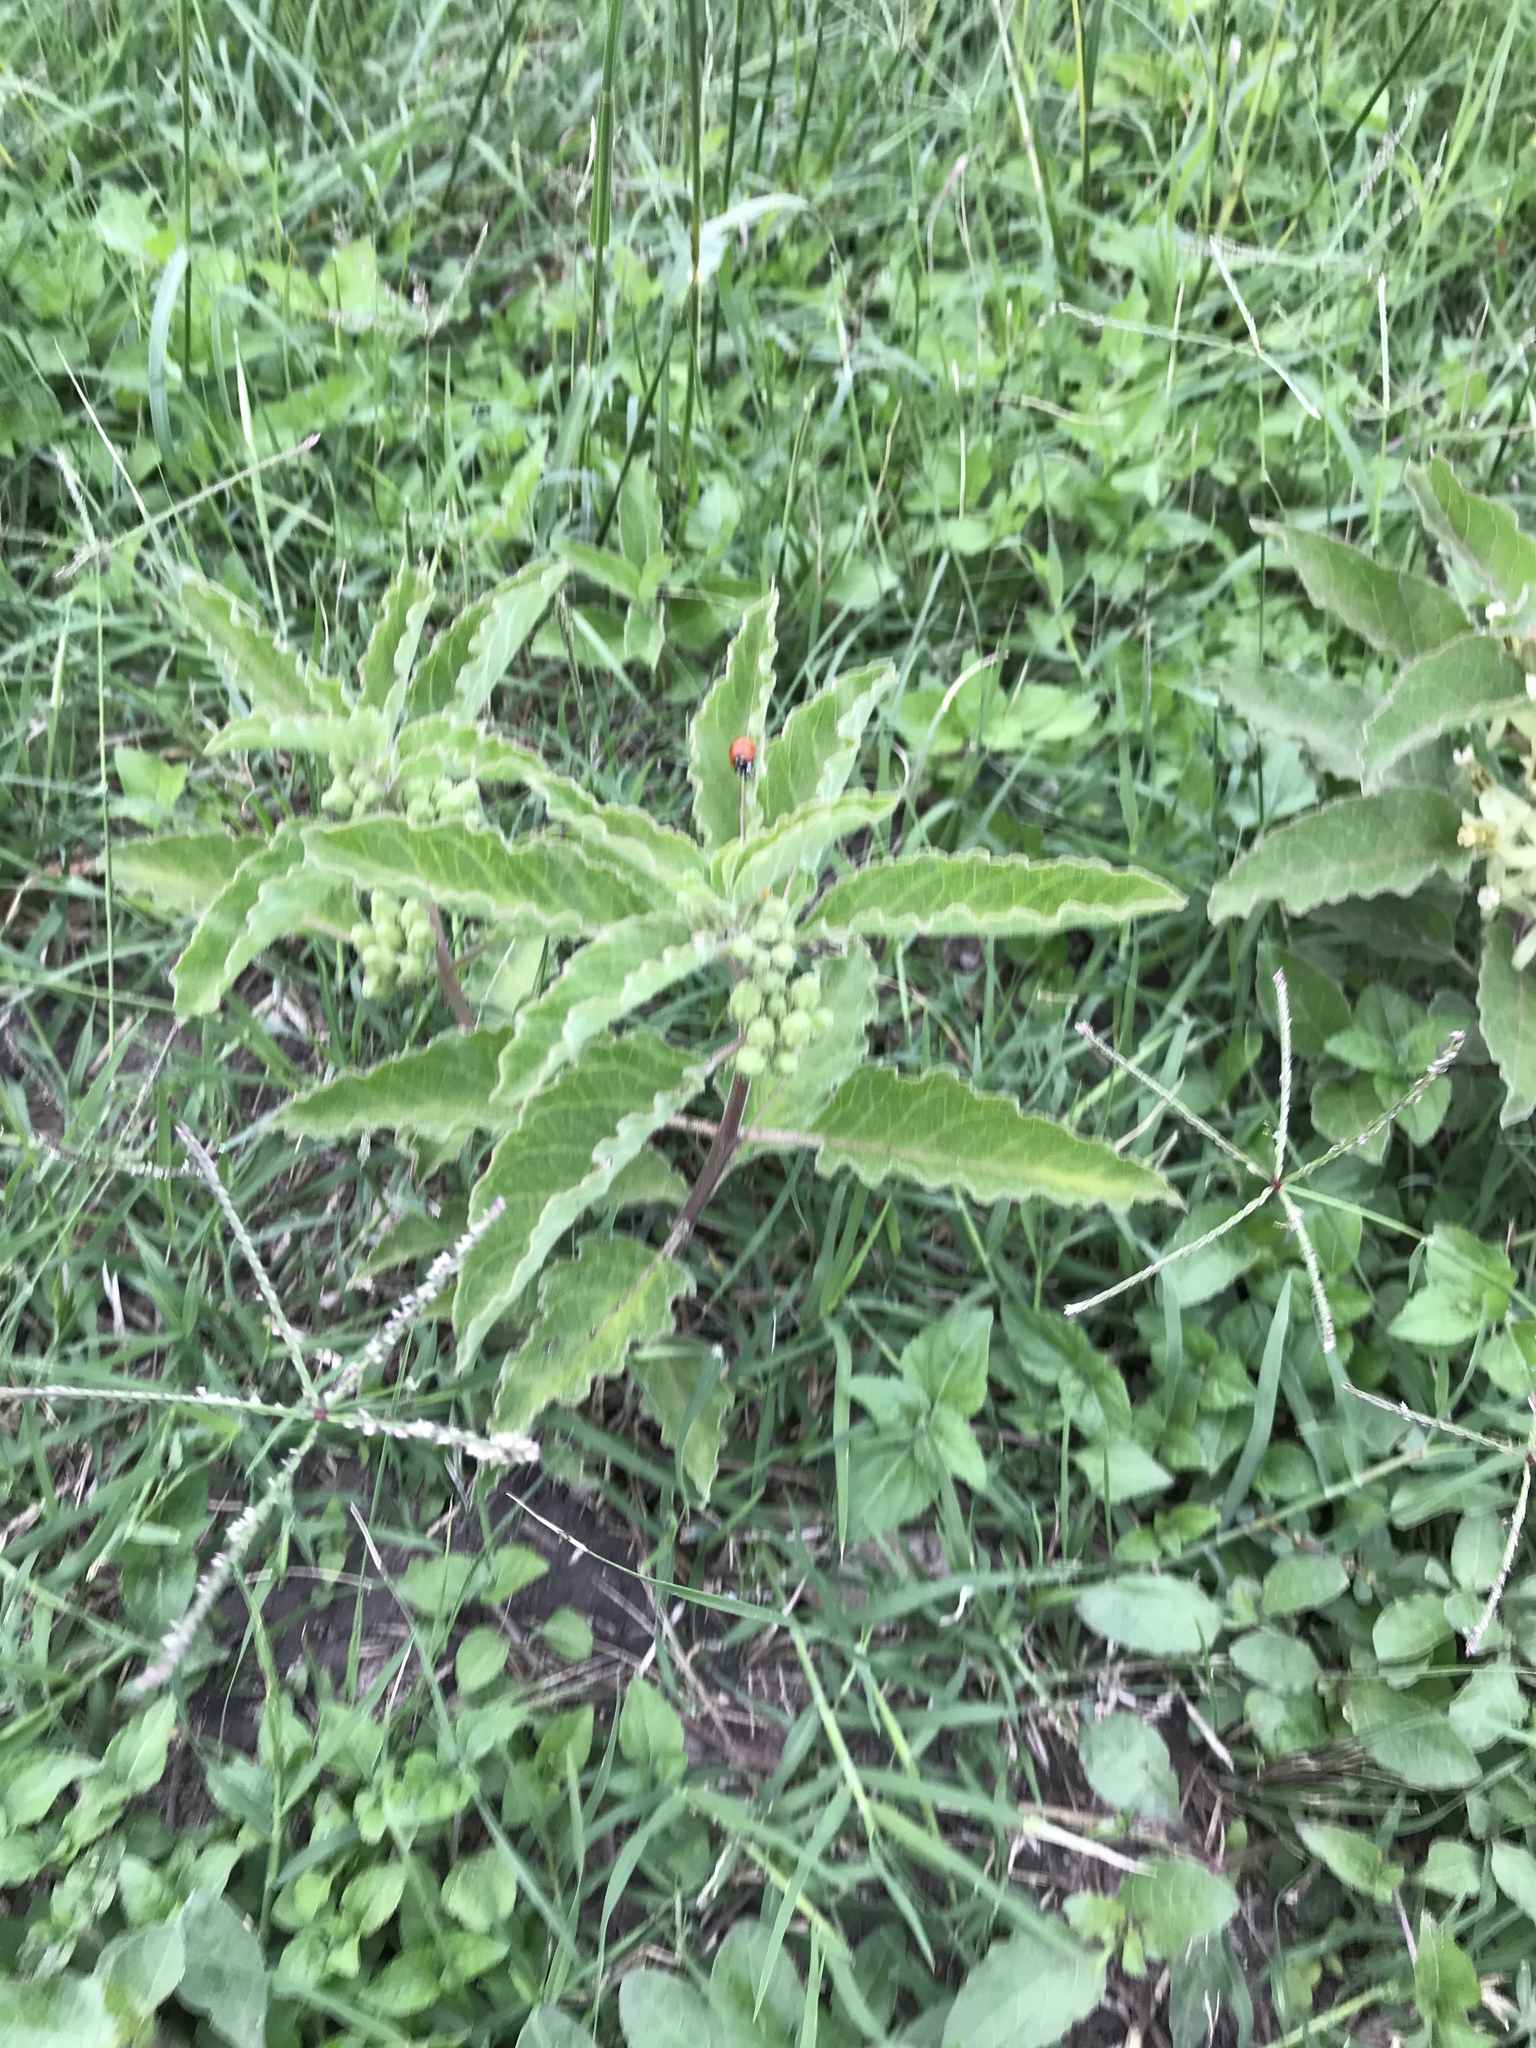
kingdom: Plantae
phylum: Tracheophyta
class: Magnoliopsida
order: Gentianales
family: Apocynaceae
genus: Asclepias
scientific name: Asclepias oenotheroides
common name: Zizotes milkweed
